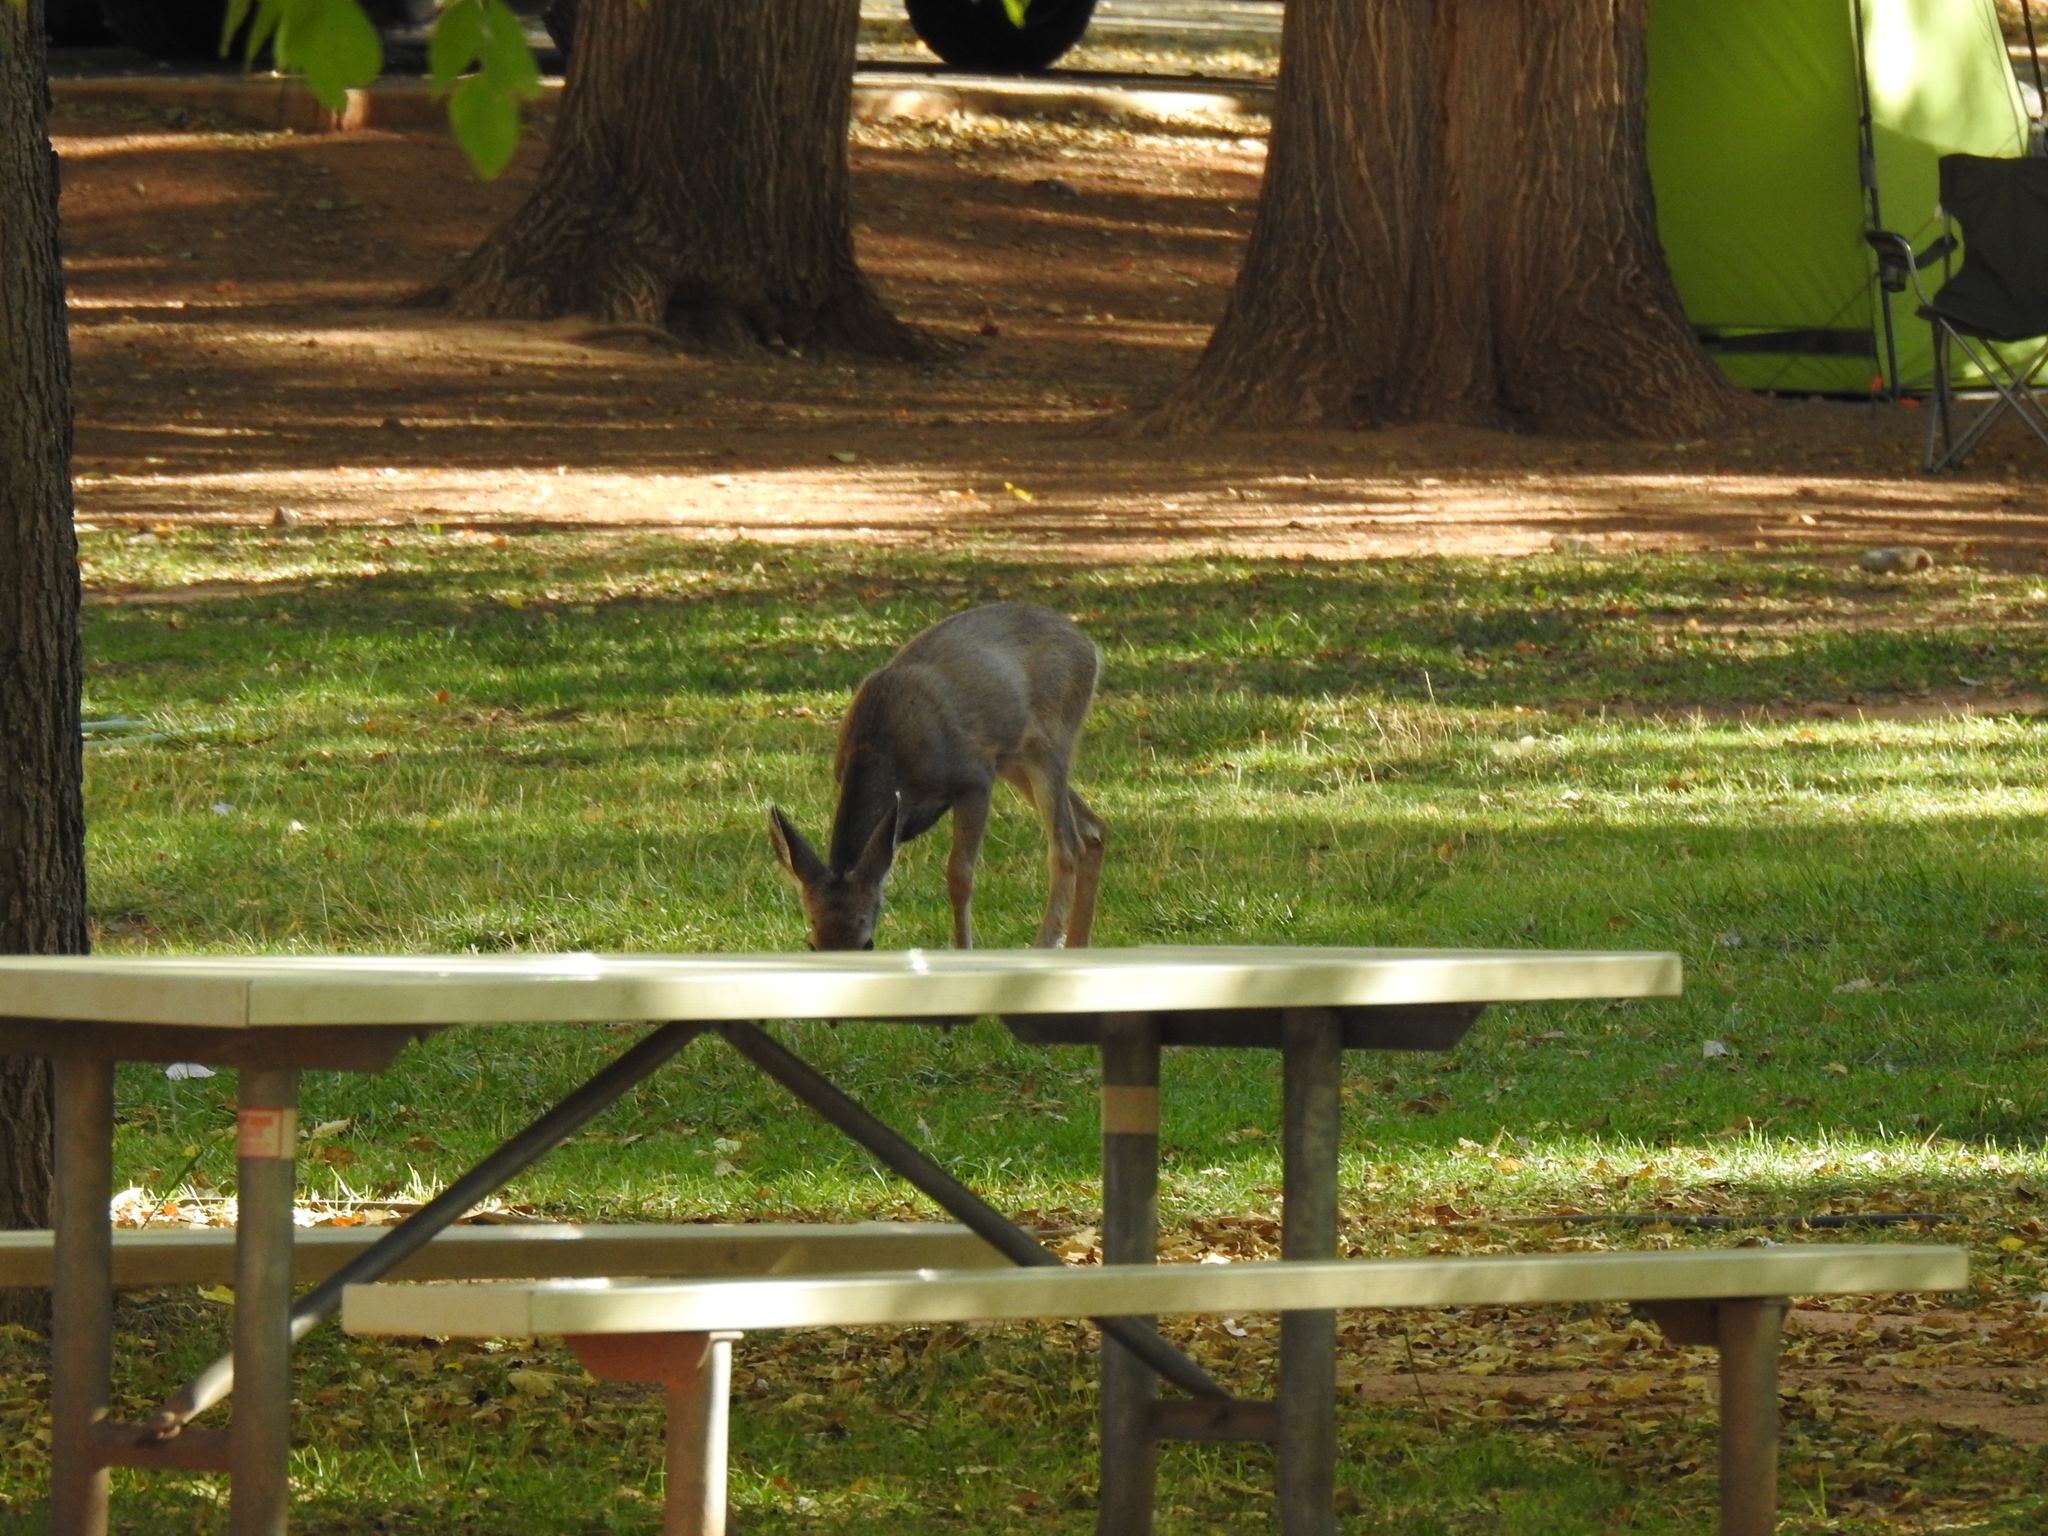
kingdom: Animalia
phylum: Chordata
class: Mammalia
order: Artiodactyla
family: Cervidae
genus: Odocoileus
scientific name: Odocoileus hemionus
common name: Mule deer
